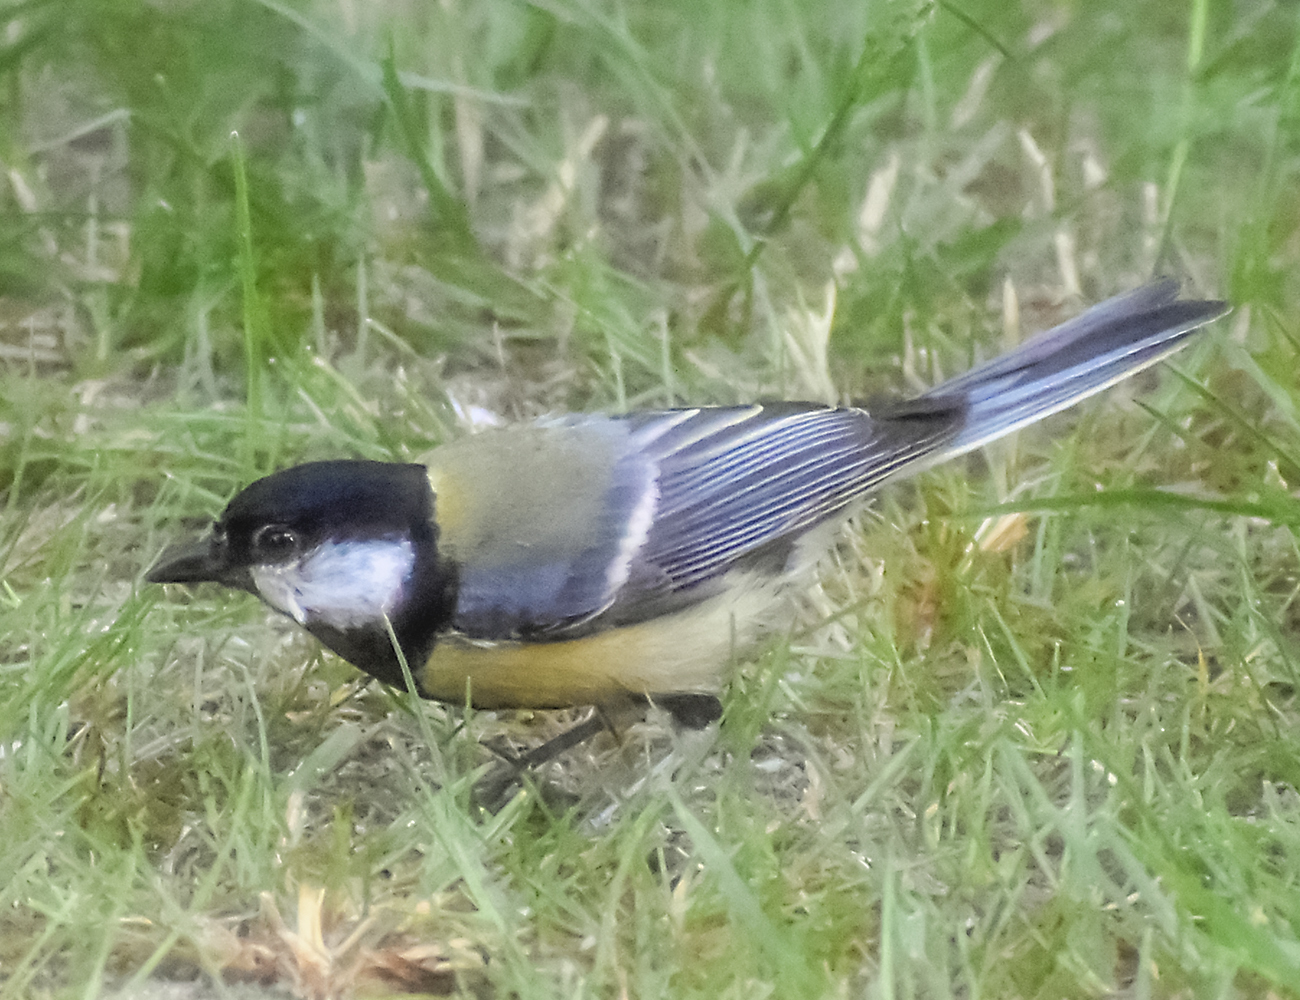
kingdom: Animalia
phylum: Chordata
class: Aves
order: Passeriformes
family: Paridae
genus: Parus
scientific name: Parus major
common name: Great tit
